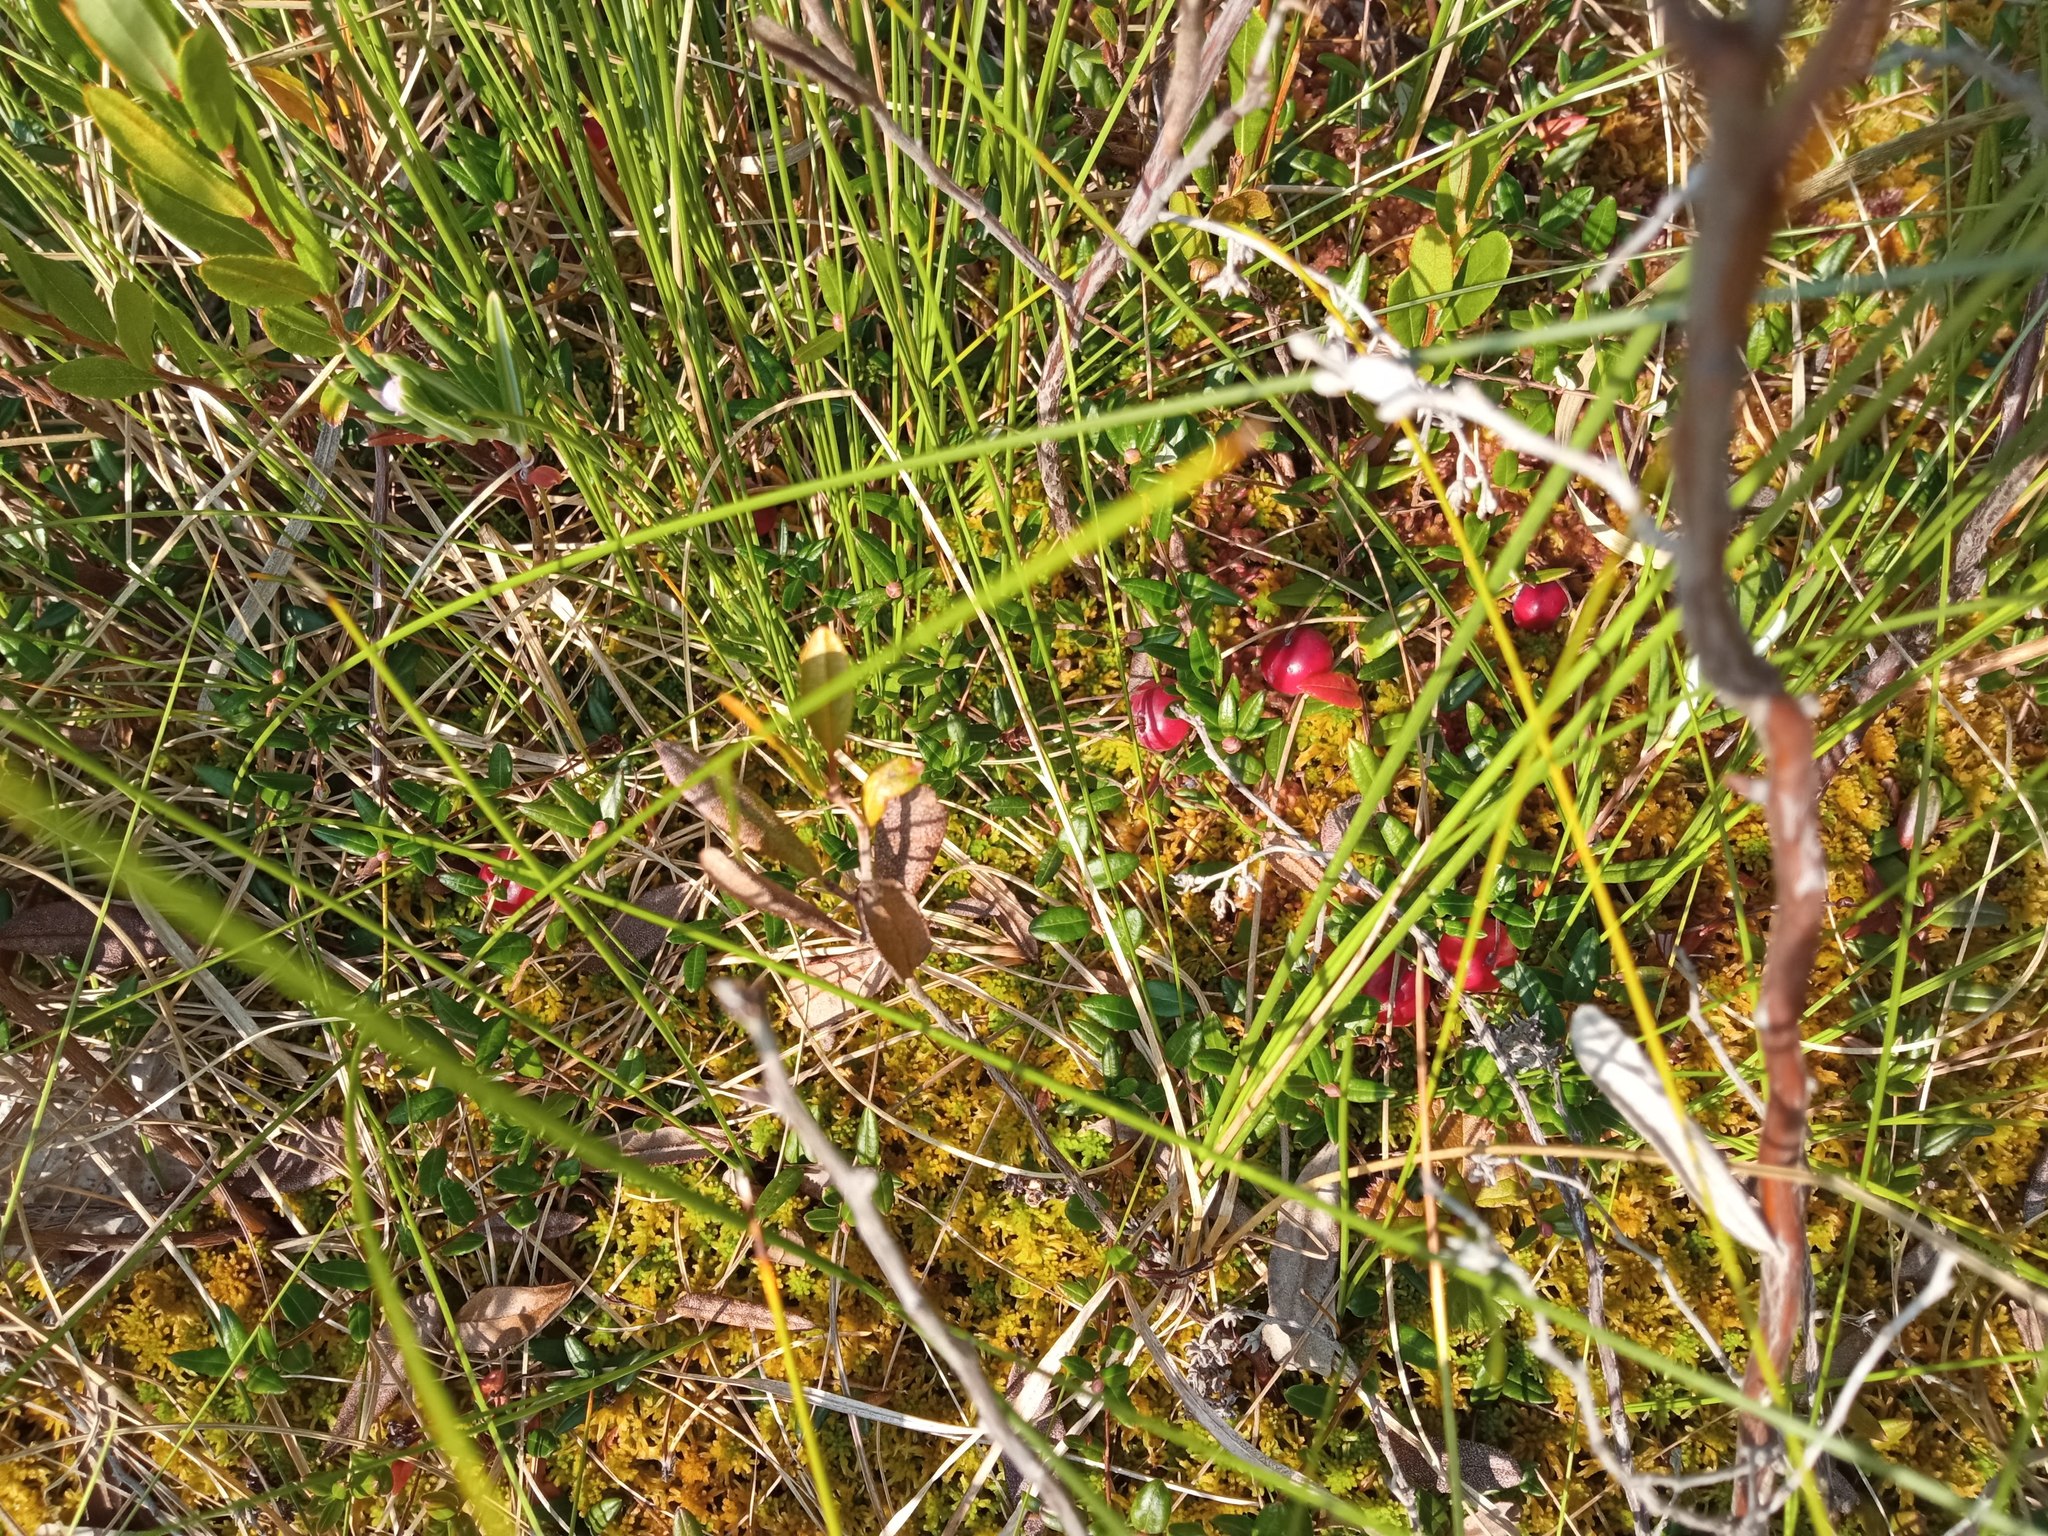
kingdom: Plantae
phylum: Tracheophyta
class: Magnoliopsida
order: Ericales
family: Ericaceae
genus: Vaccinium
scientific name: Vaccinium oxycoccos
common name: Cranberry
